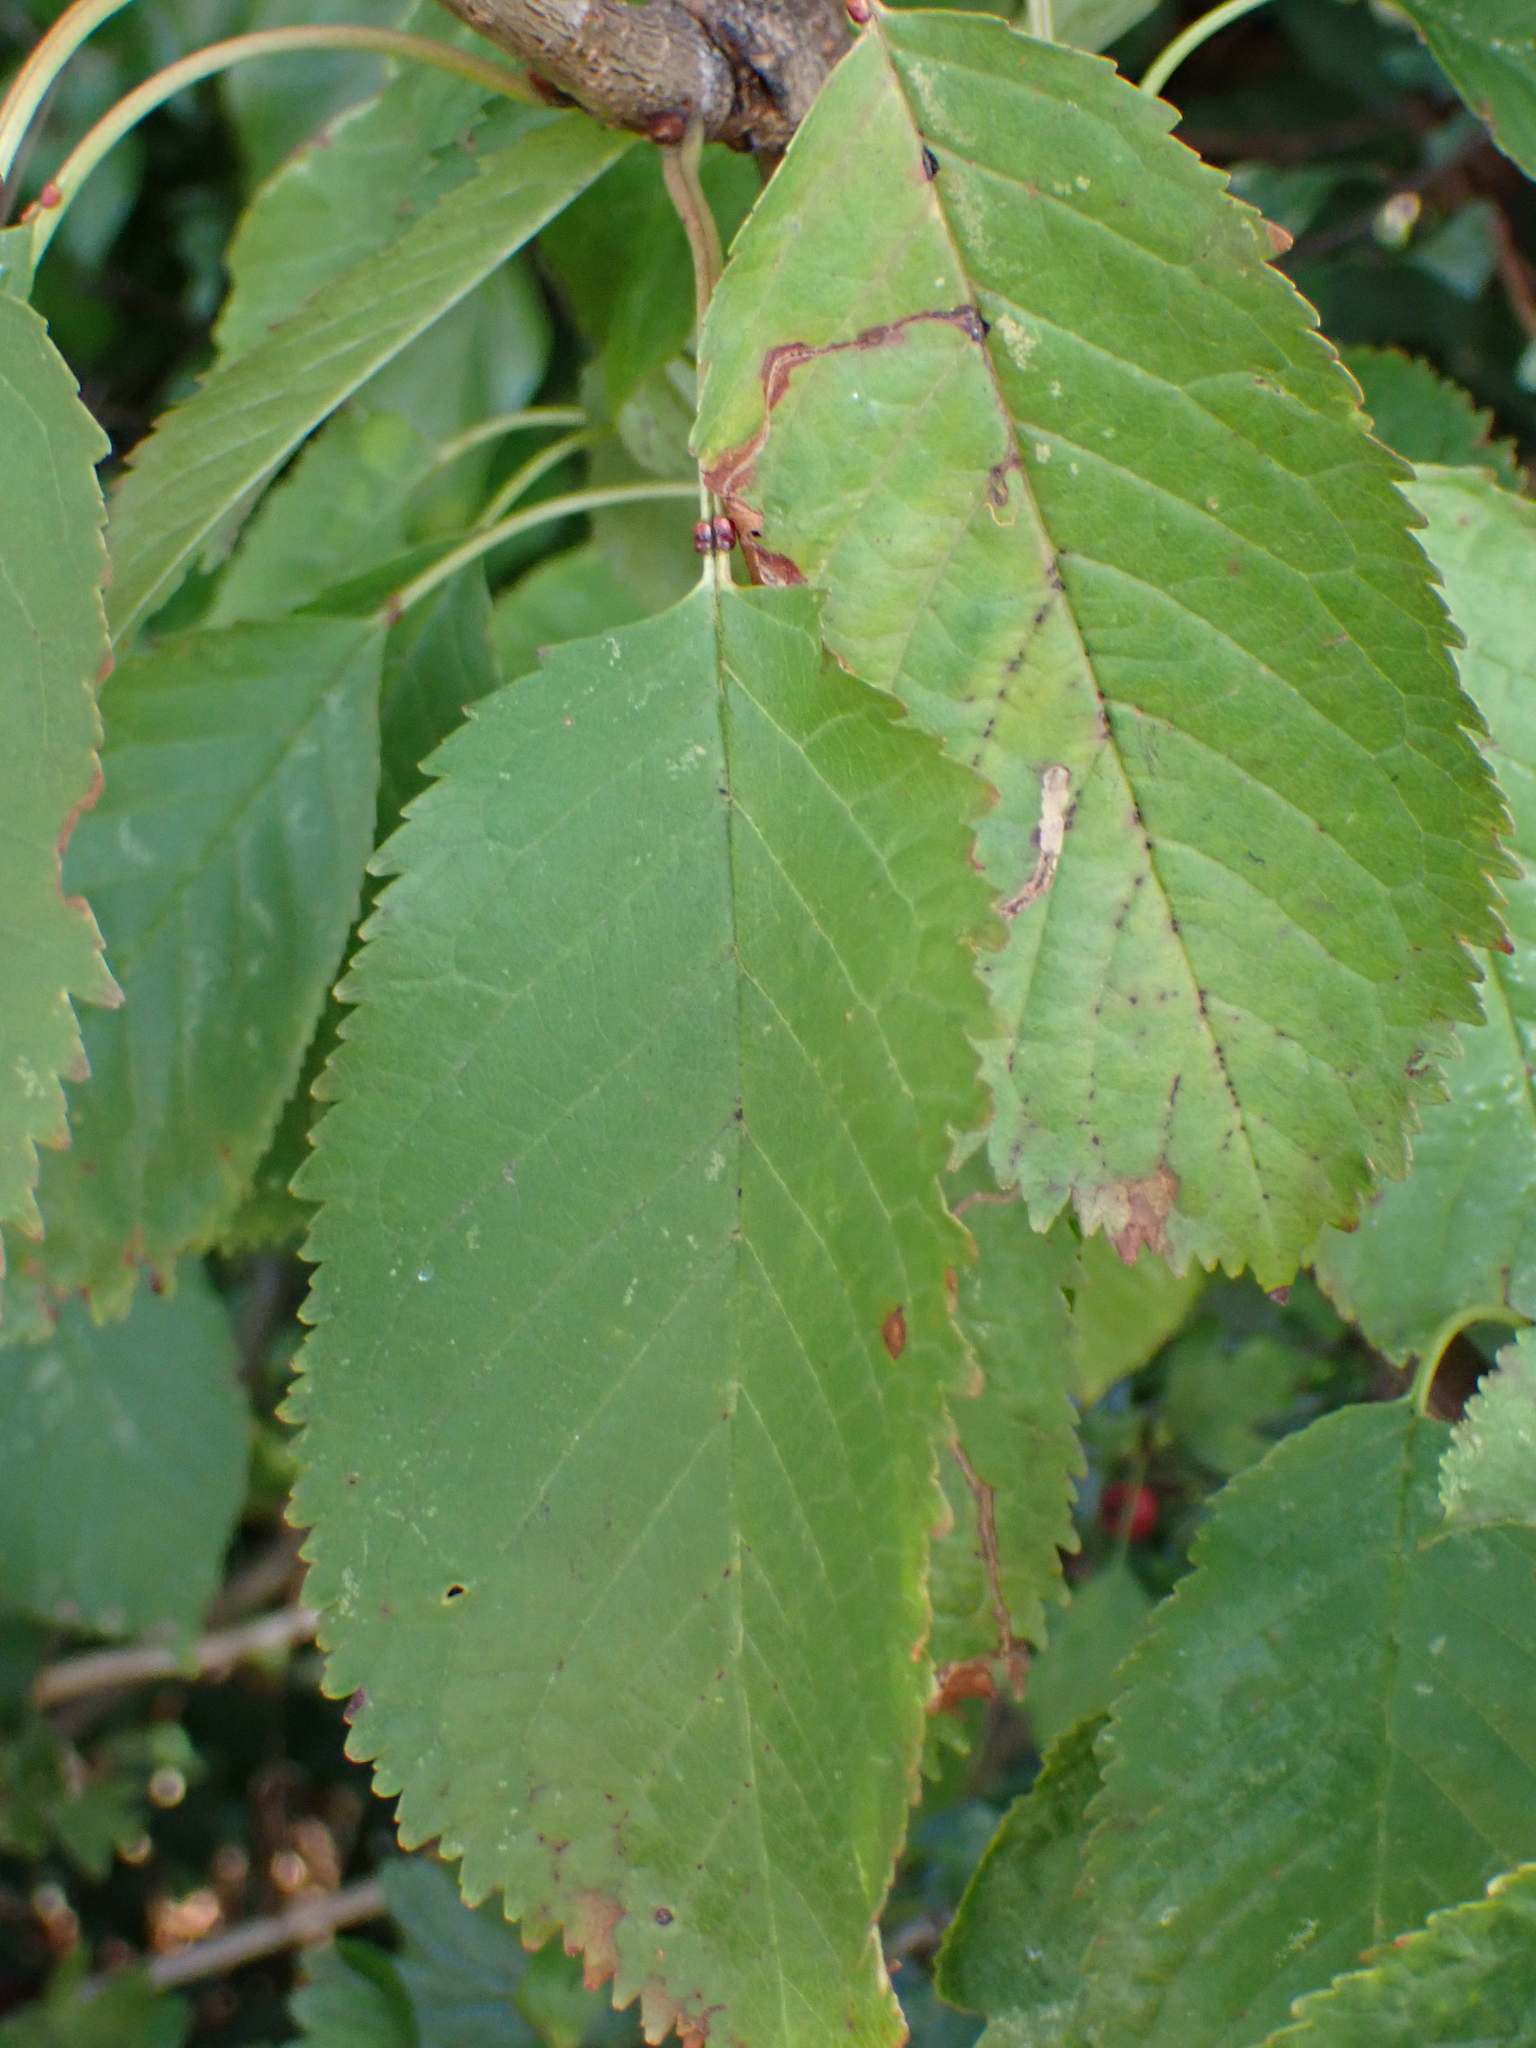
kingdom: Plantae
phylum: Tracheophyta
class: Magnoliopsida
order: Rosales
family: Rosaceae
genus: Prunus
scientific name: Prunus avium
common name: Sweet cherry
